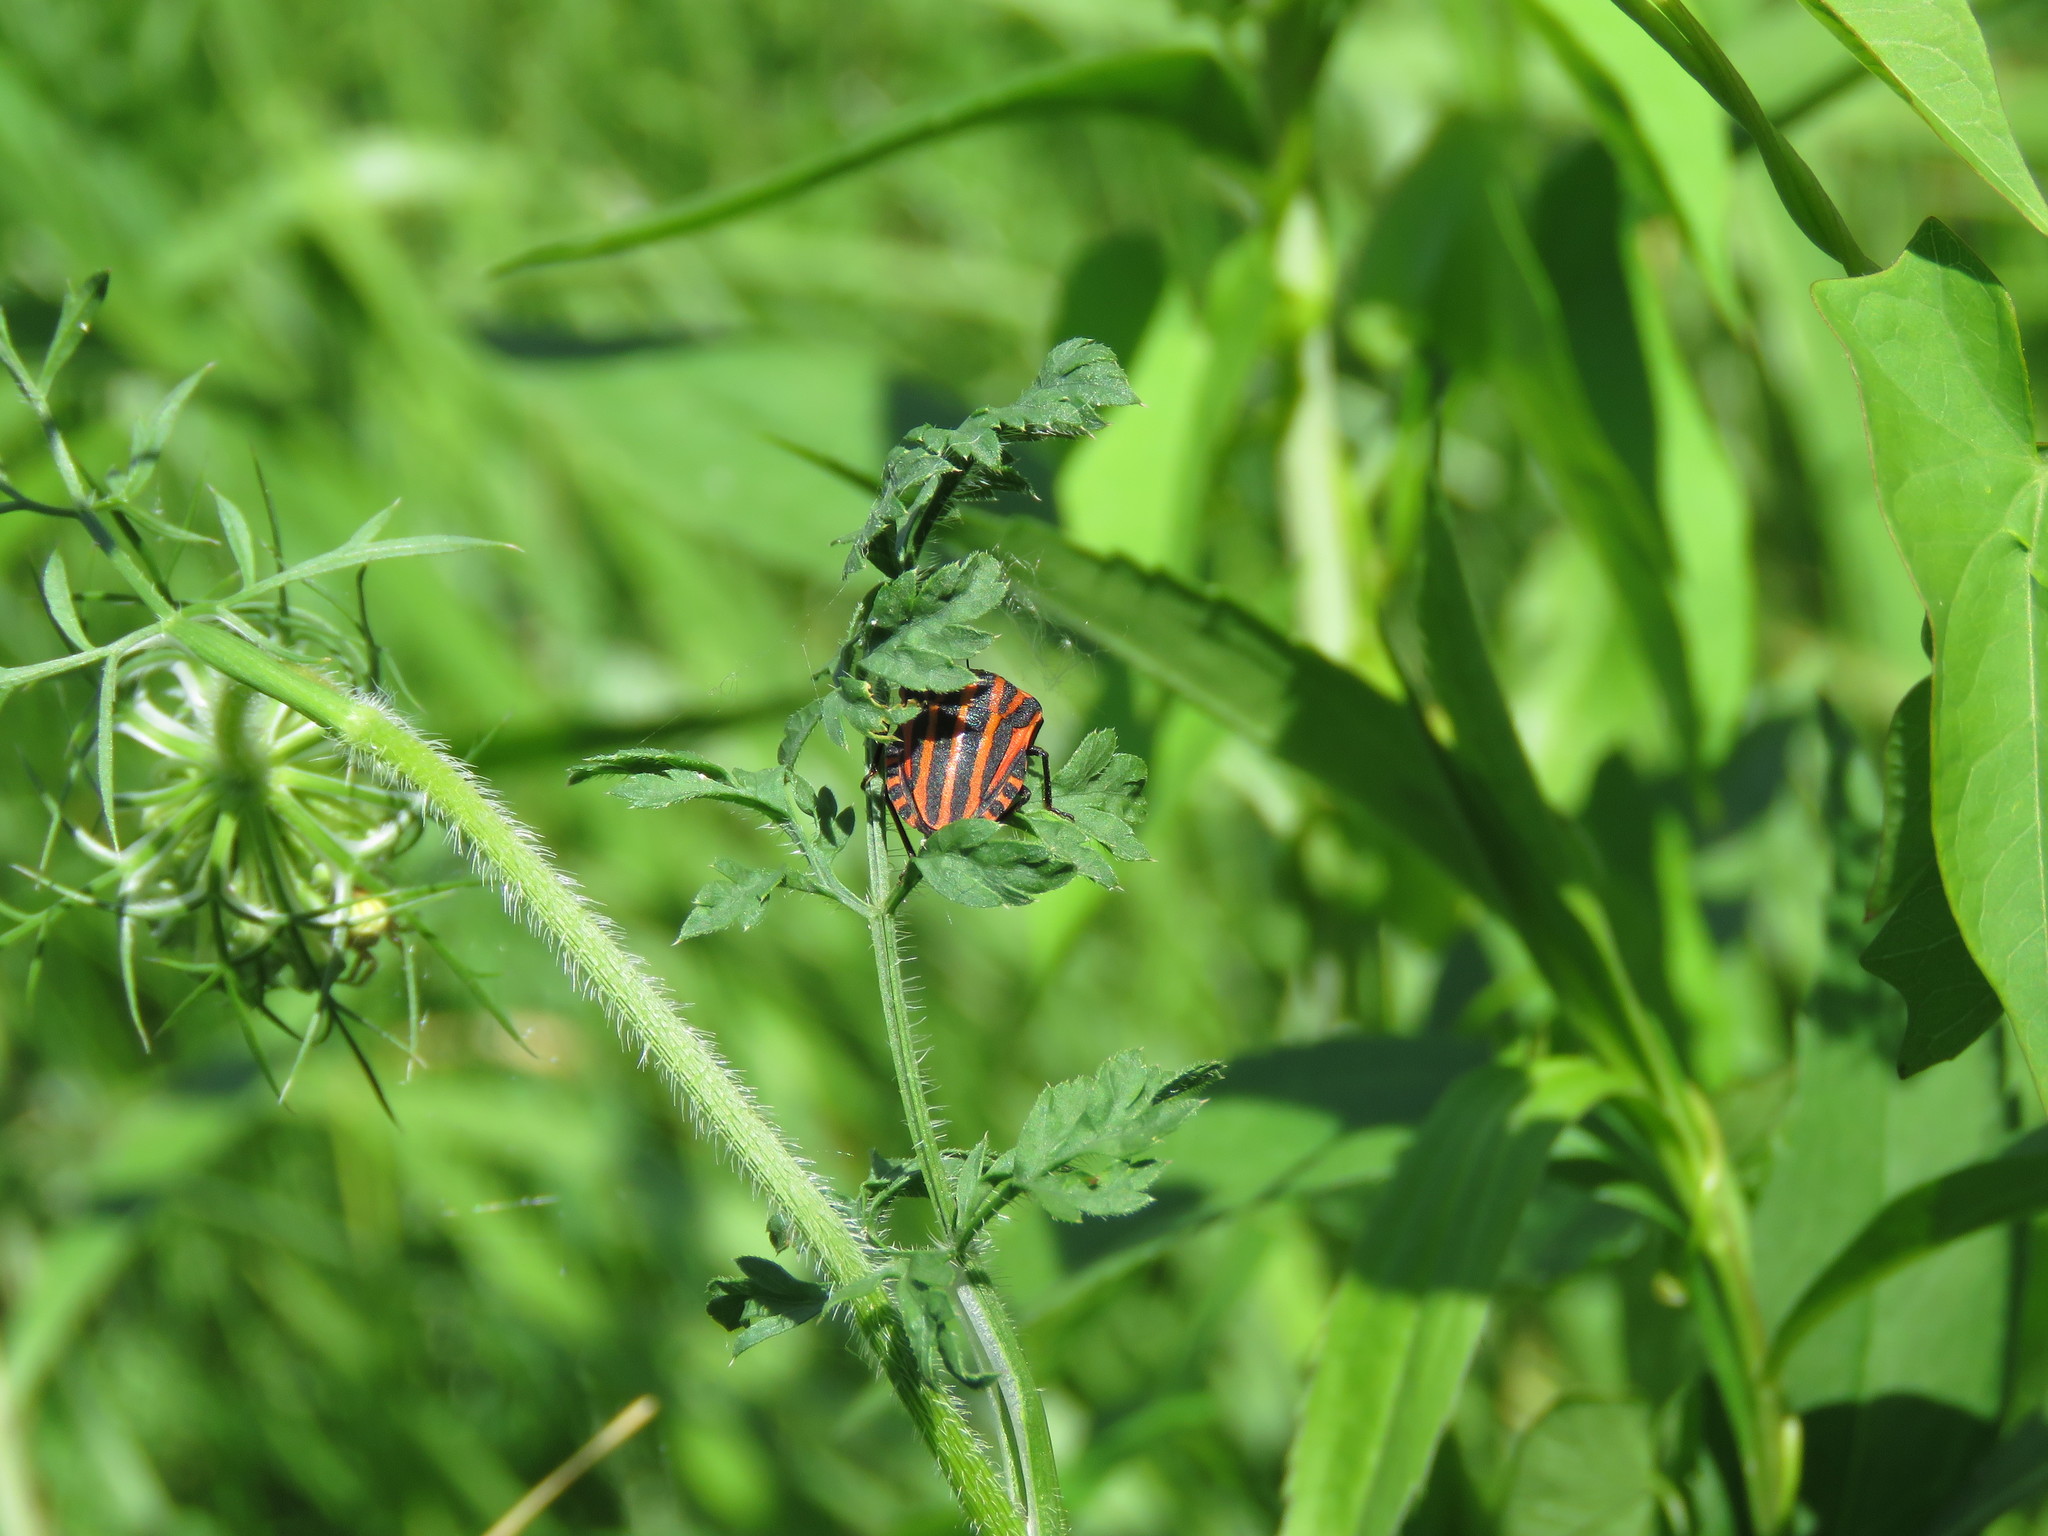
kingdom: Animalia
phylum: Arthropoda
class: Insecta
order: Hemiptera
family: Pentatomidae
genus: Graphosoma
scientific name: Graphosoma italicum
